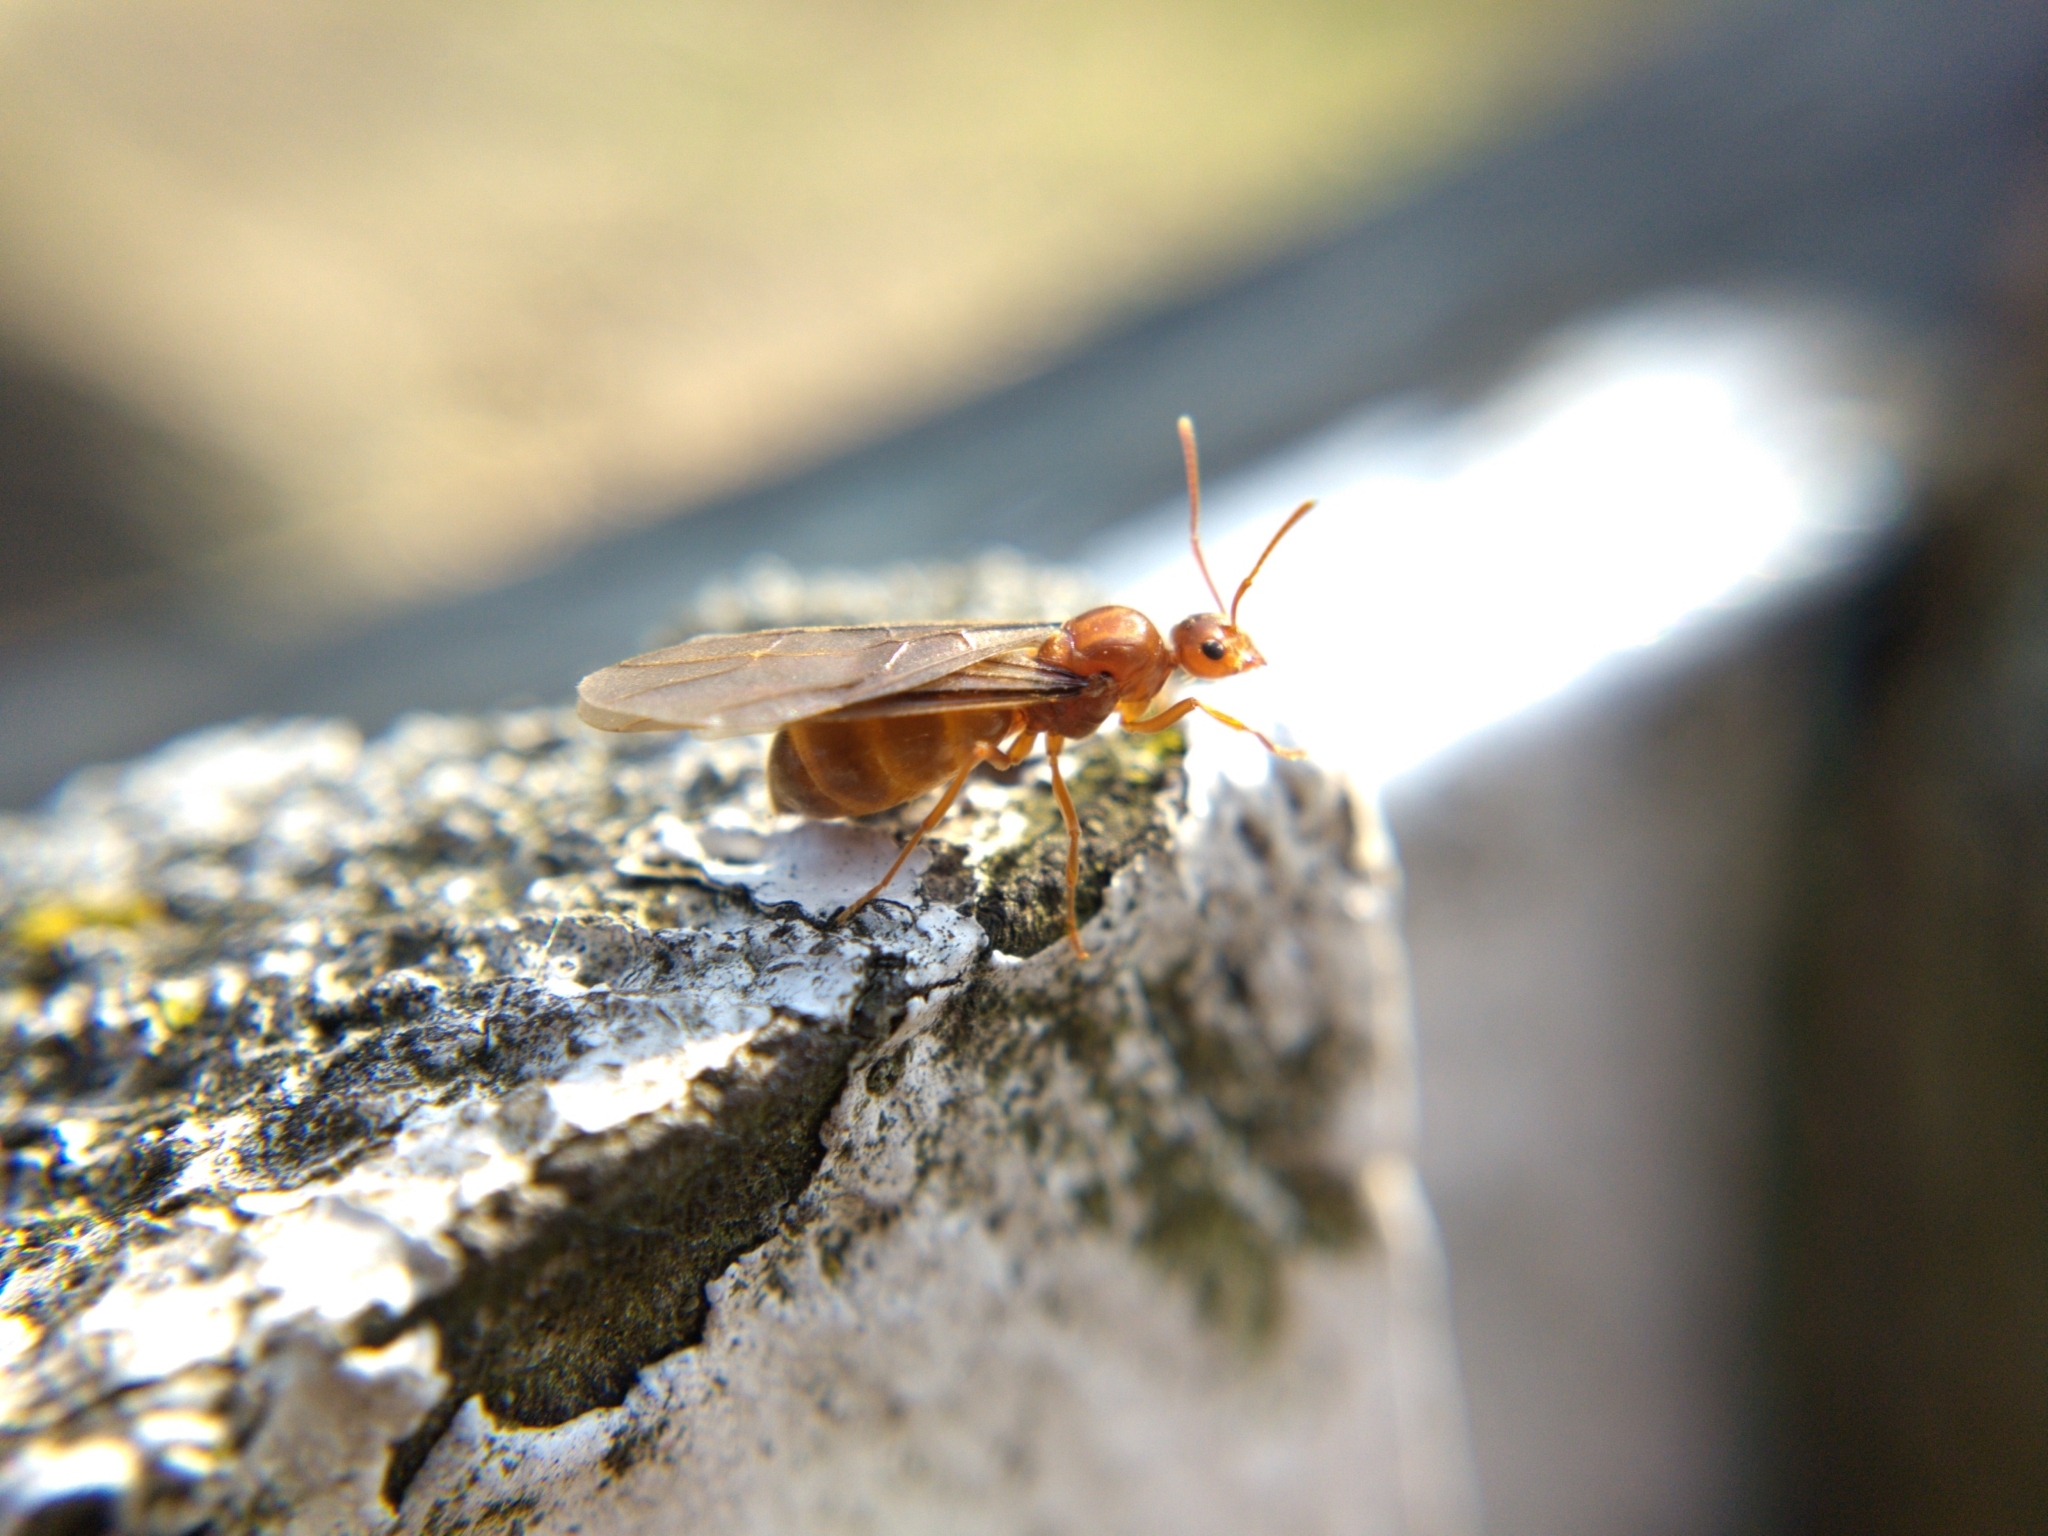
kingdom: Animalia
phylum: Arthropoda
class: Insecta
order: Hymenoptera
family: Formicidae
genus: Prenolepis
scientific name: Prenolepis imparis
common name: Small honey ant
